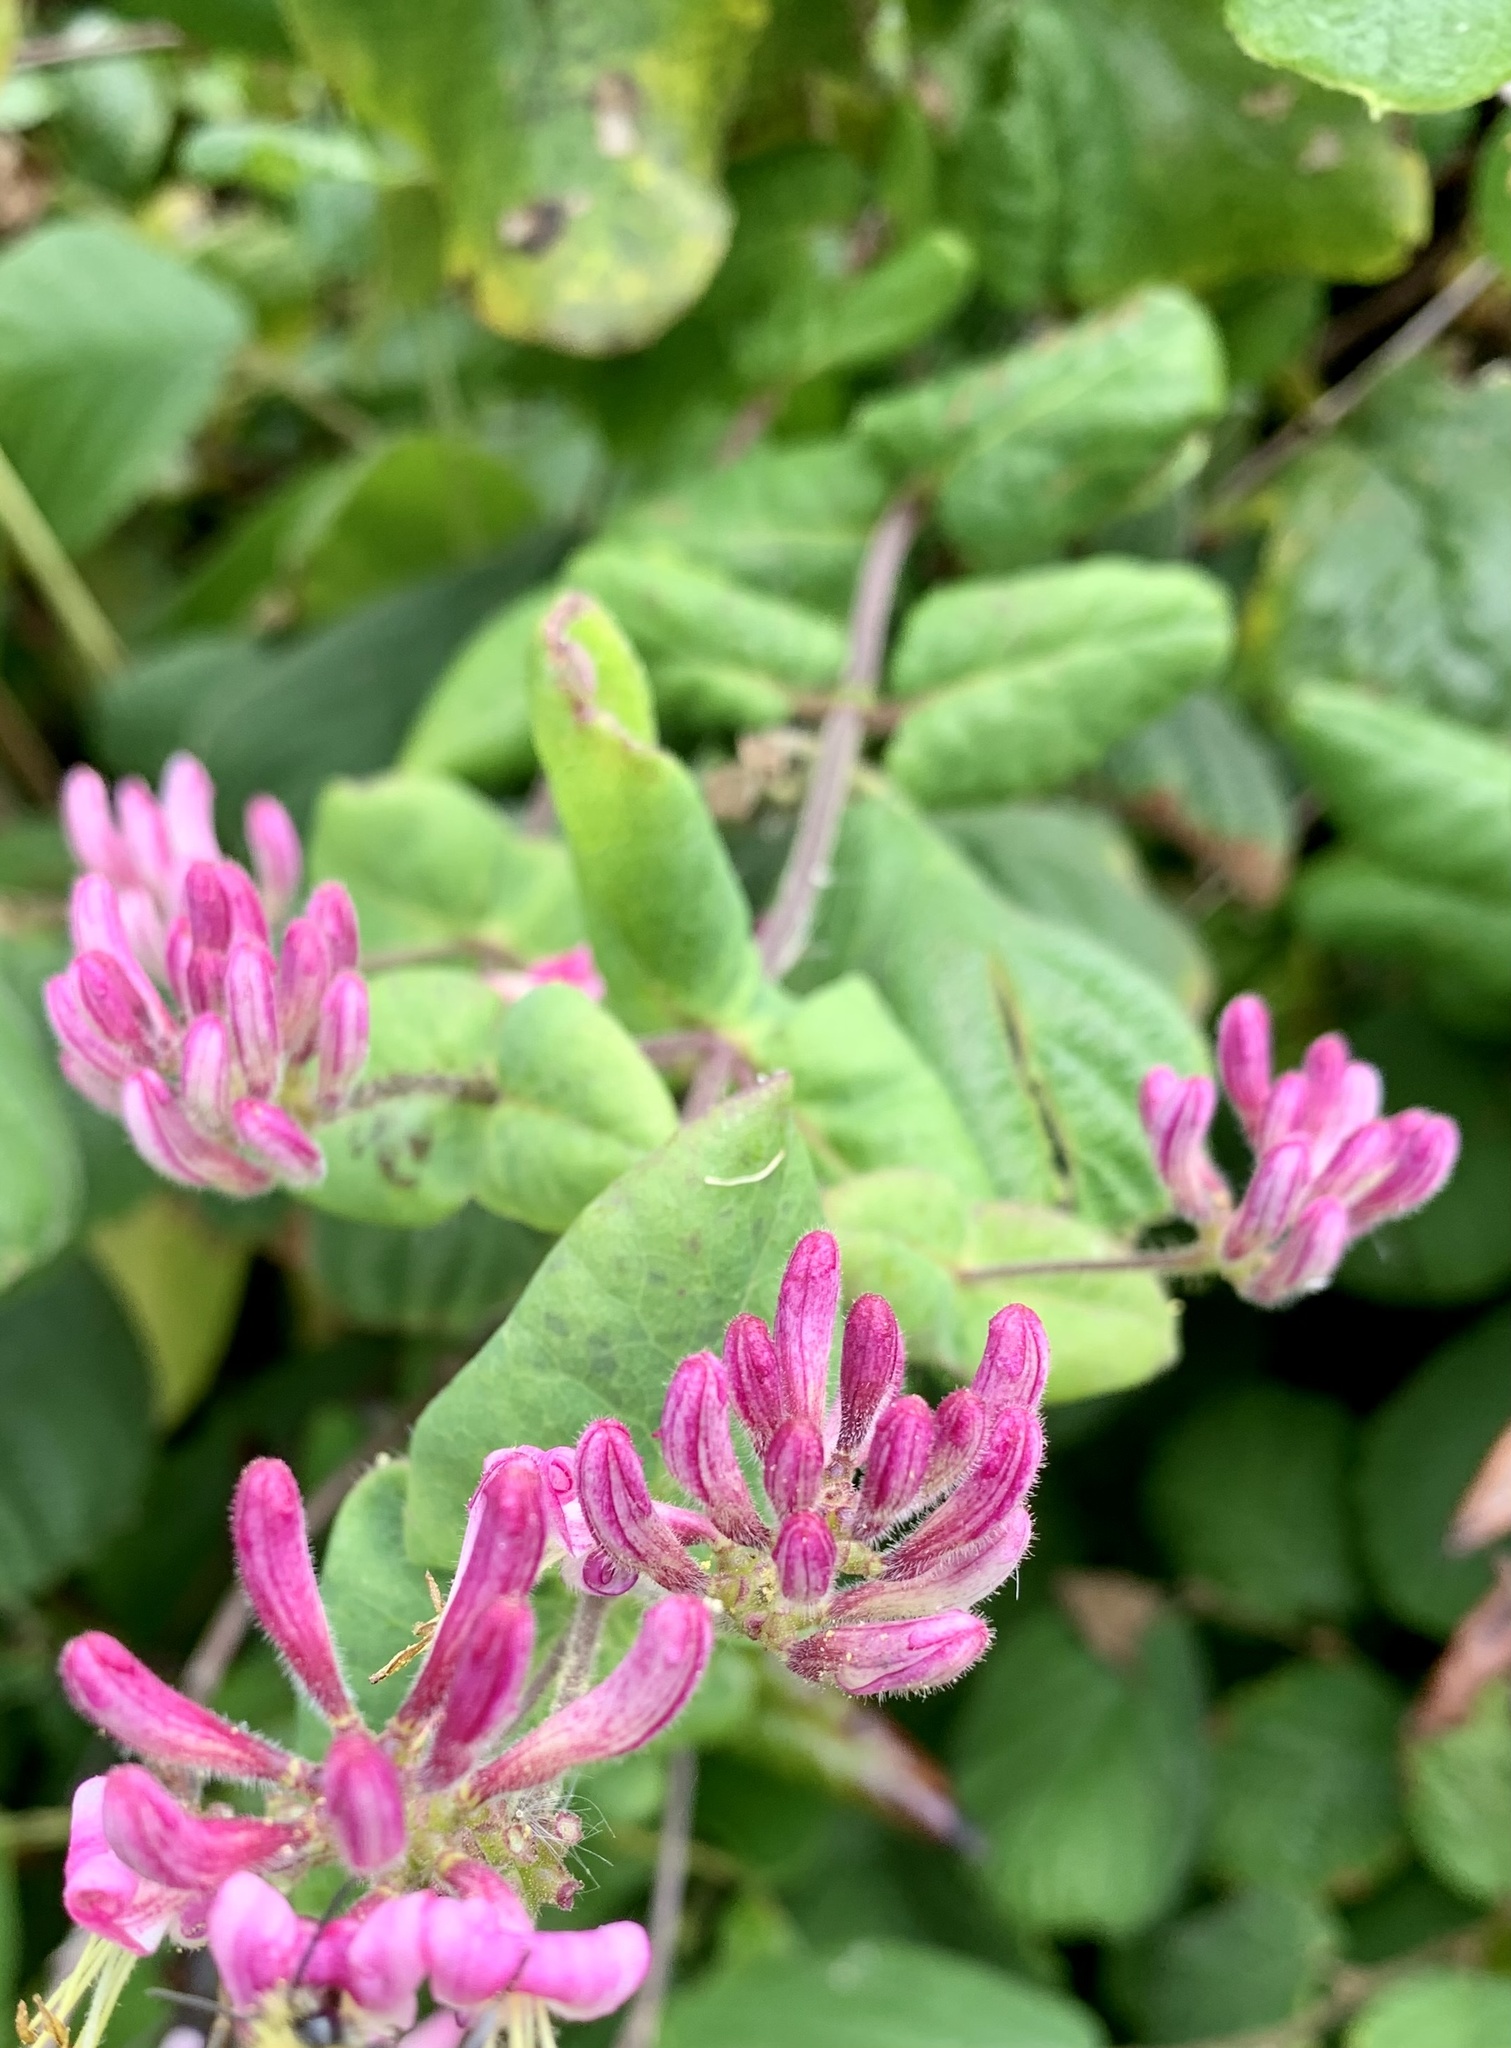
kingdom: Plantae
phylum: Tracheophyta
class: Magnoliopsida
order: Dipsacales
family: Caprifoliaceae
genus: Lonicera
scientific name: Lonicera hispidula
